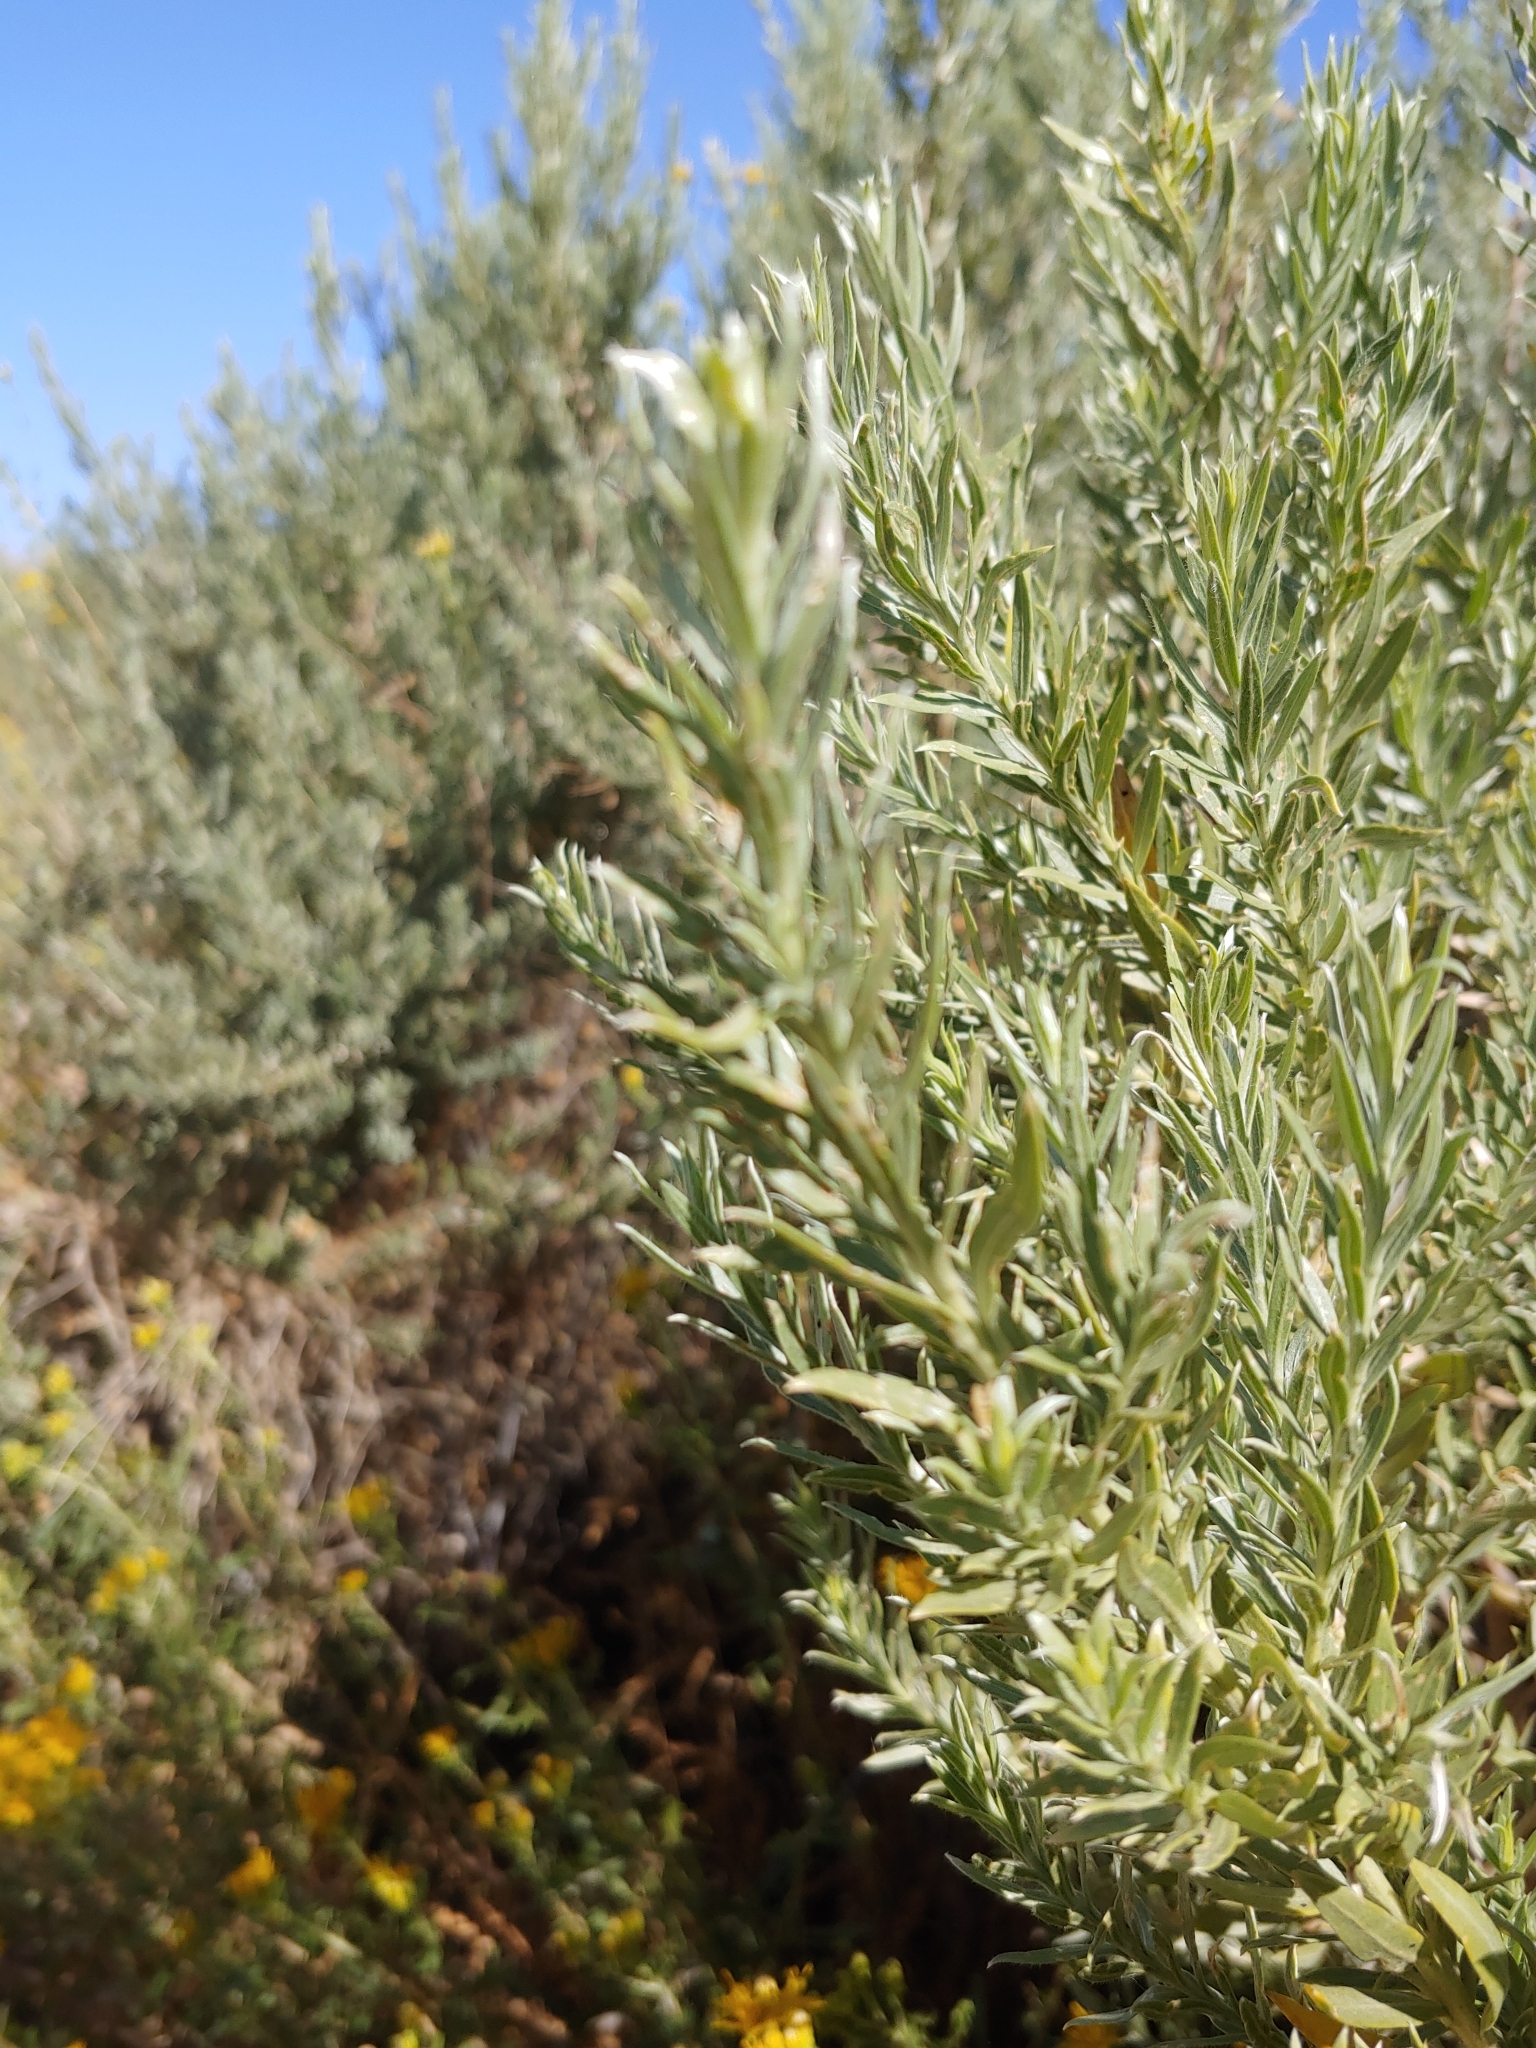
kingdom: Plantae
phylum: Tracheophyta
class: Magnoliopsida
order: Asterales
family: Asteraceae
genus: Pluchea
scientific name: Pluchea sericea
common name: Arrow-weed
